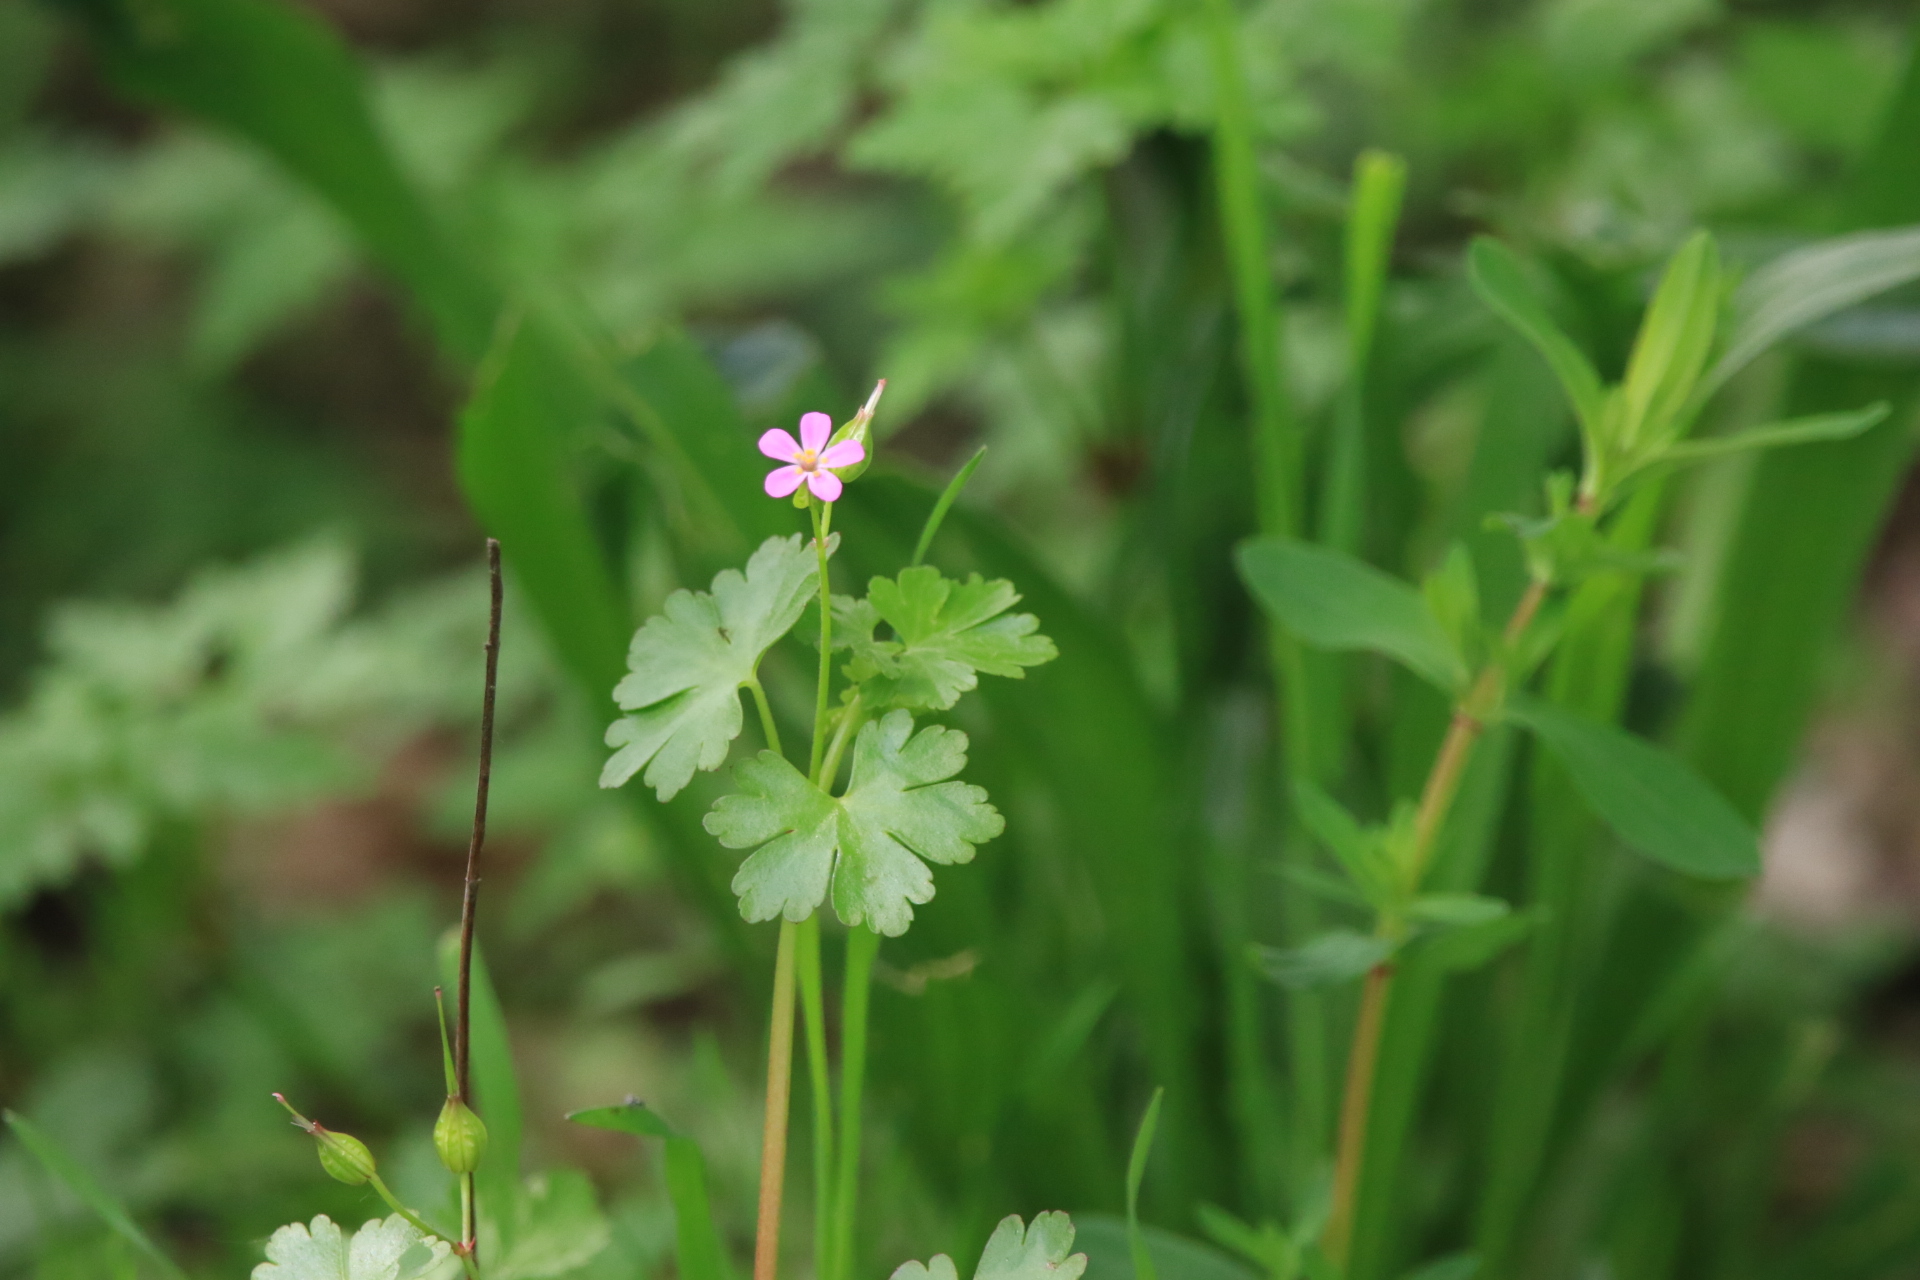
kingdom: Plantae
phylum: Tracheophyta
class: Magnoliopsida
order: Geraniales
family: Geraniaceae
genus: Geranium
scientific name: Geranium lucidum
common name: Shining crane's-bill
